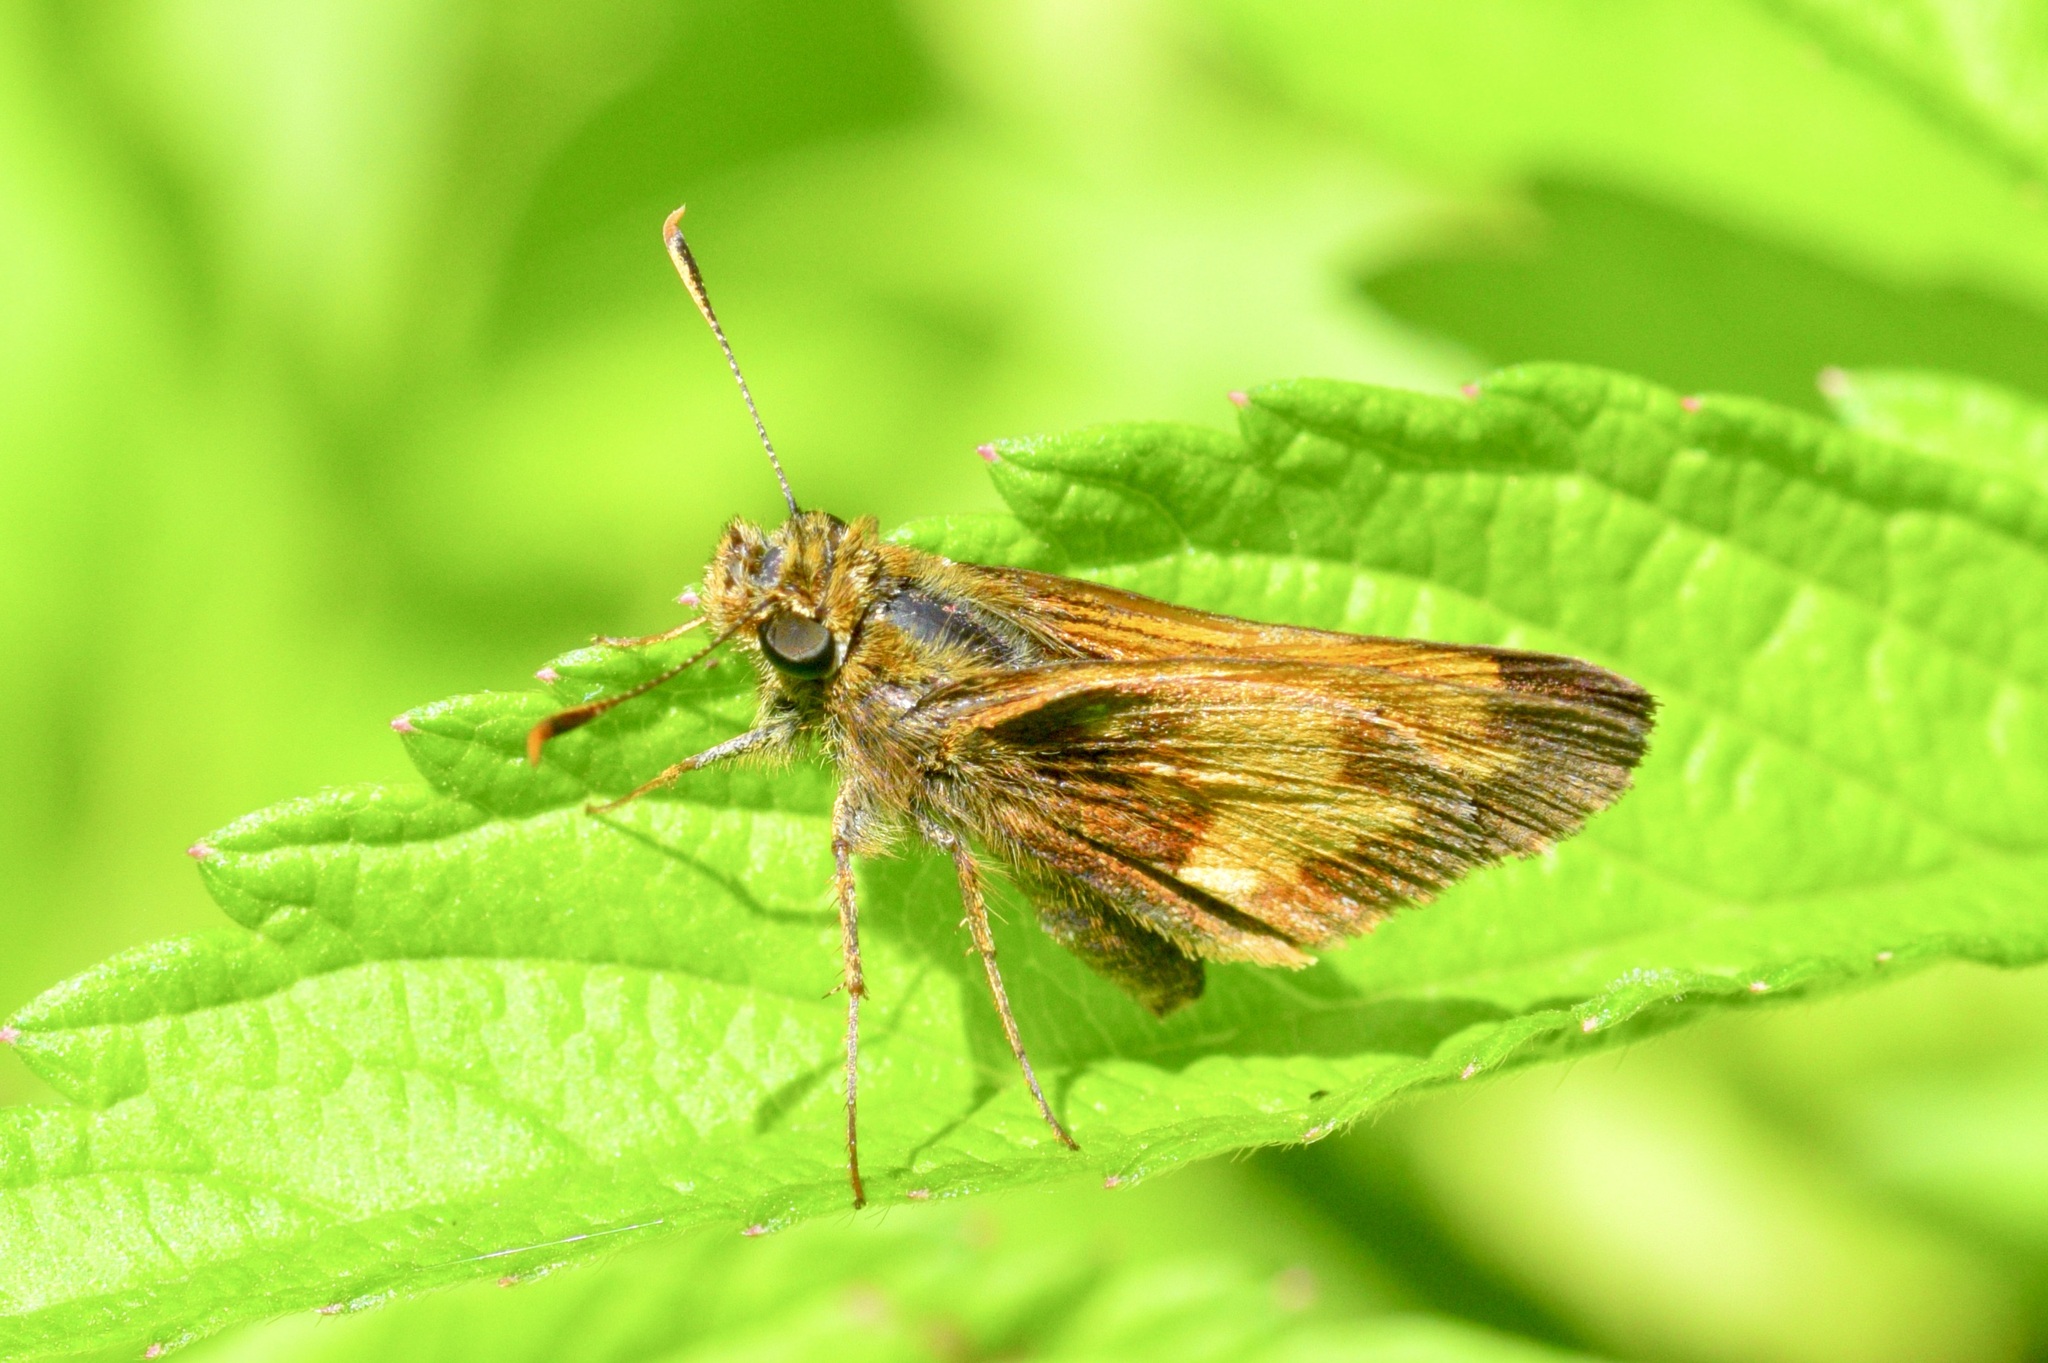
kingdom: Animalia
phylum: Arthropoda
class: Insecta
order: Lepidoptera
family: Hesperiidae
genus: Lon
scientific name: Lon hobomok
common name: Hobomok skipper
